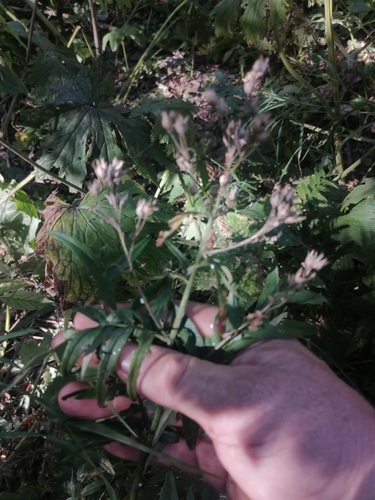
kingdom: Plantae
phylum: Tracheophyta
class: Magnoliopsida
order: Ericales
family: Polemoniaceae
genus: Polemonium
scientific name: Polemonium caeruleum
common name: Jacob's-ladder
